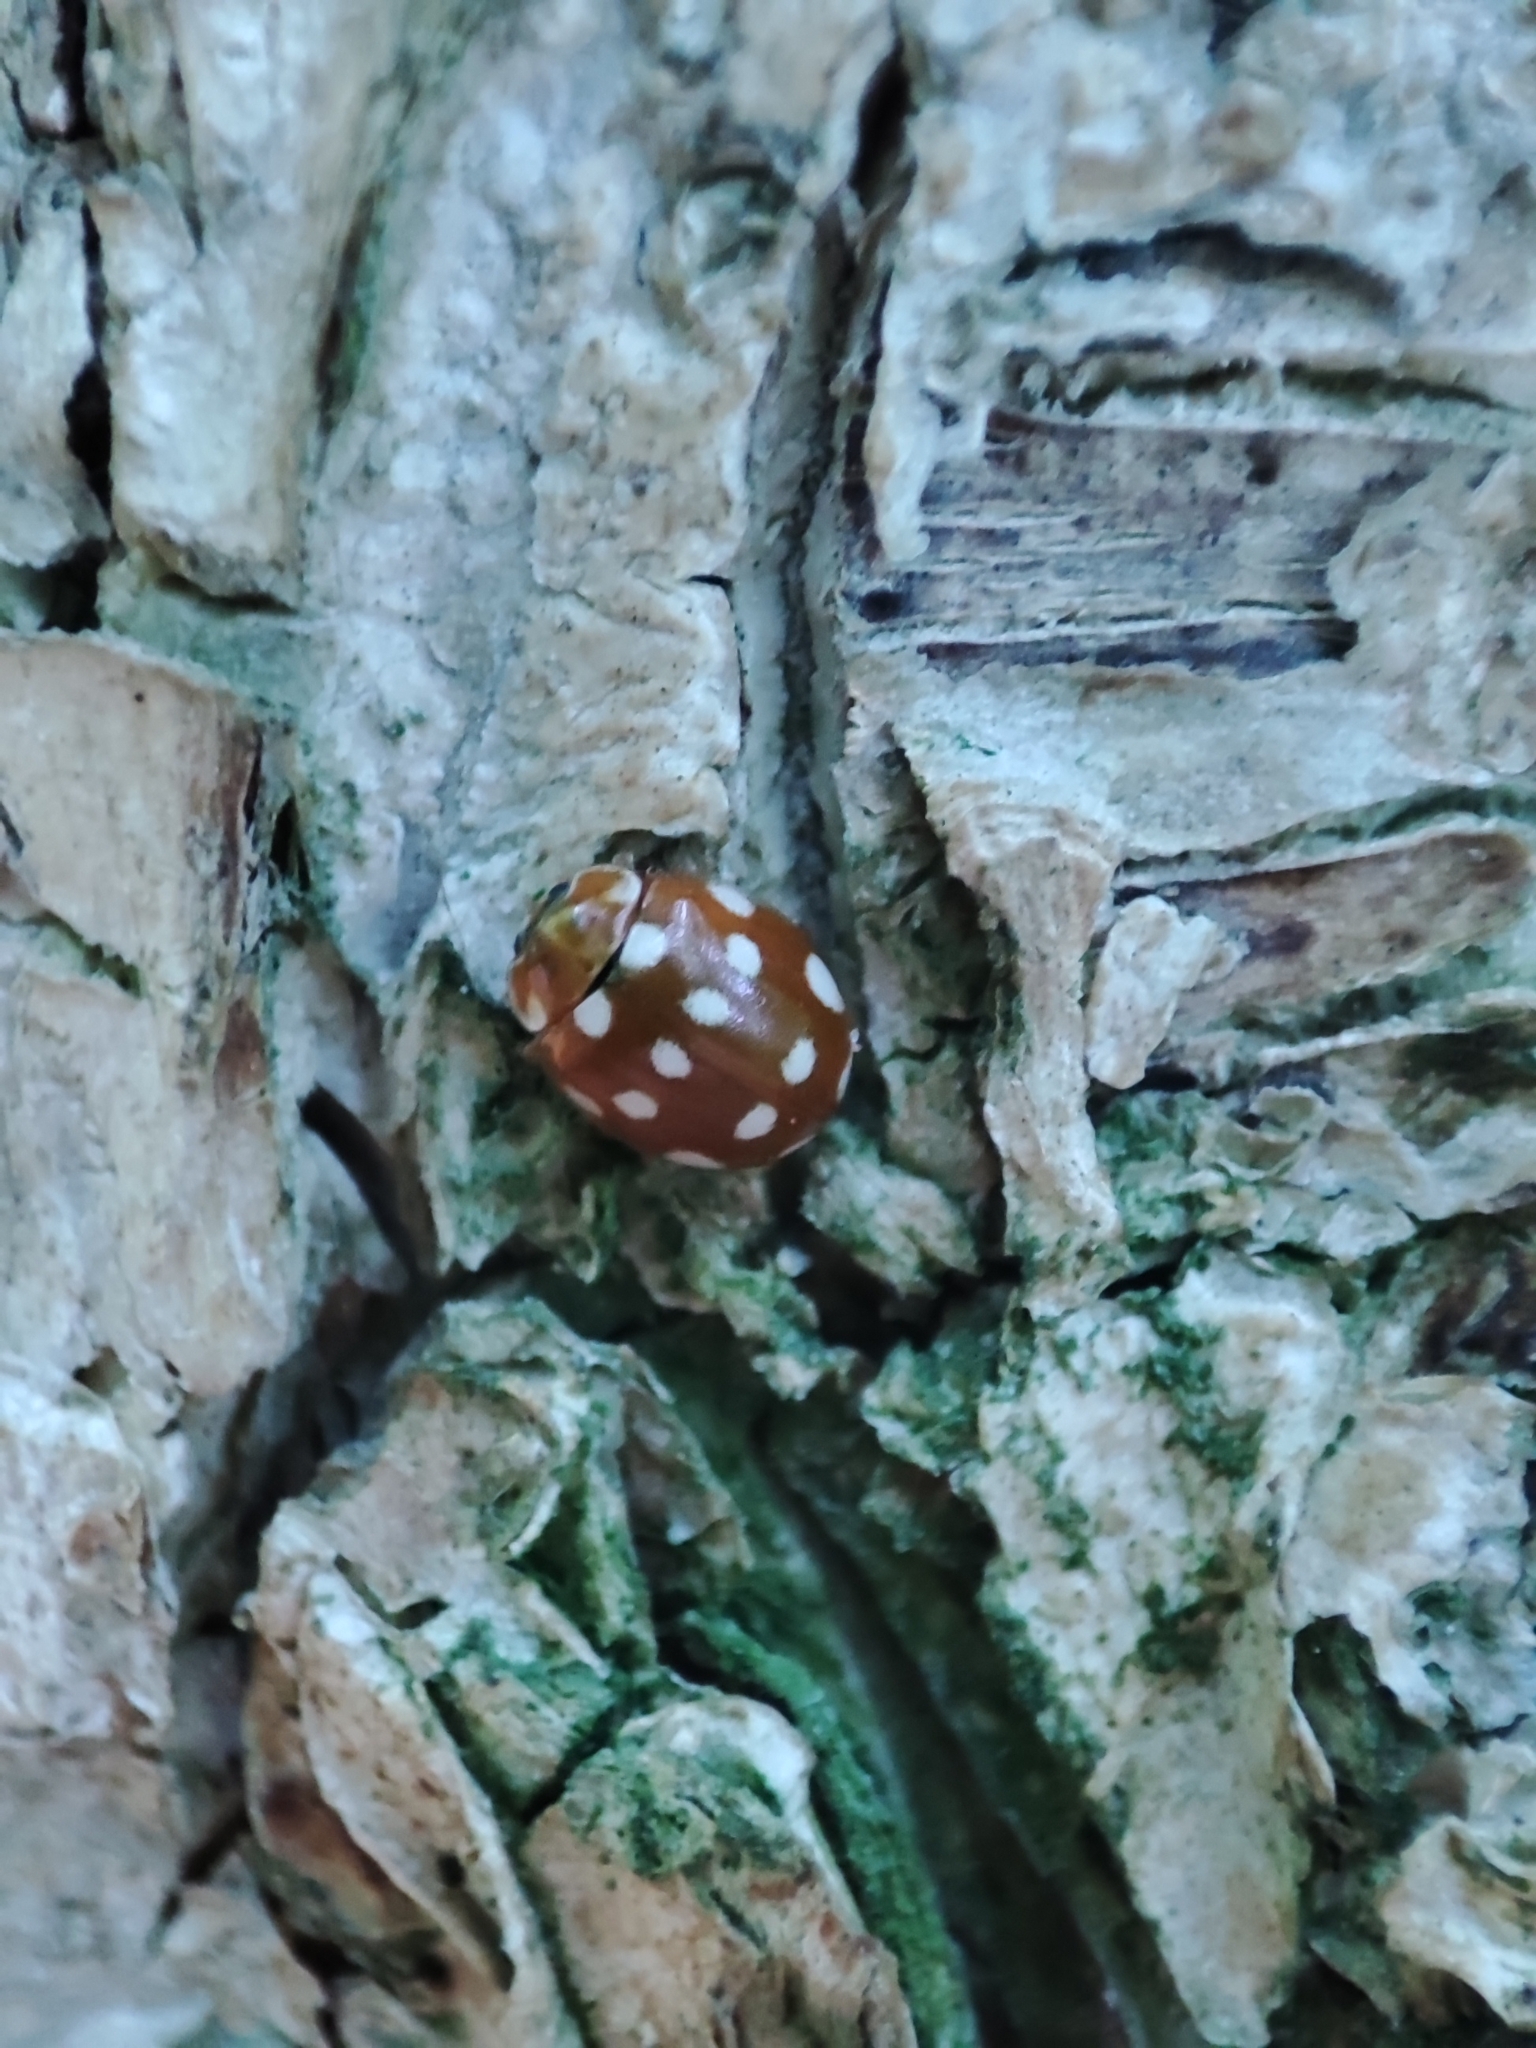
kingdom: Animalia
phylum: Arthropoda
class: Insecta
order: Coleoptera
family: Coccinellidae
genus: Calvia
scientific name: Calvia quatuordecimguttata
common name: Cream-spot ladybird
